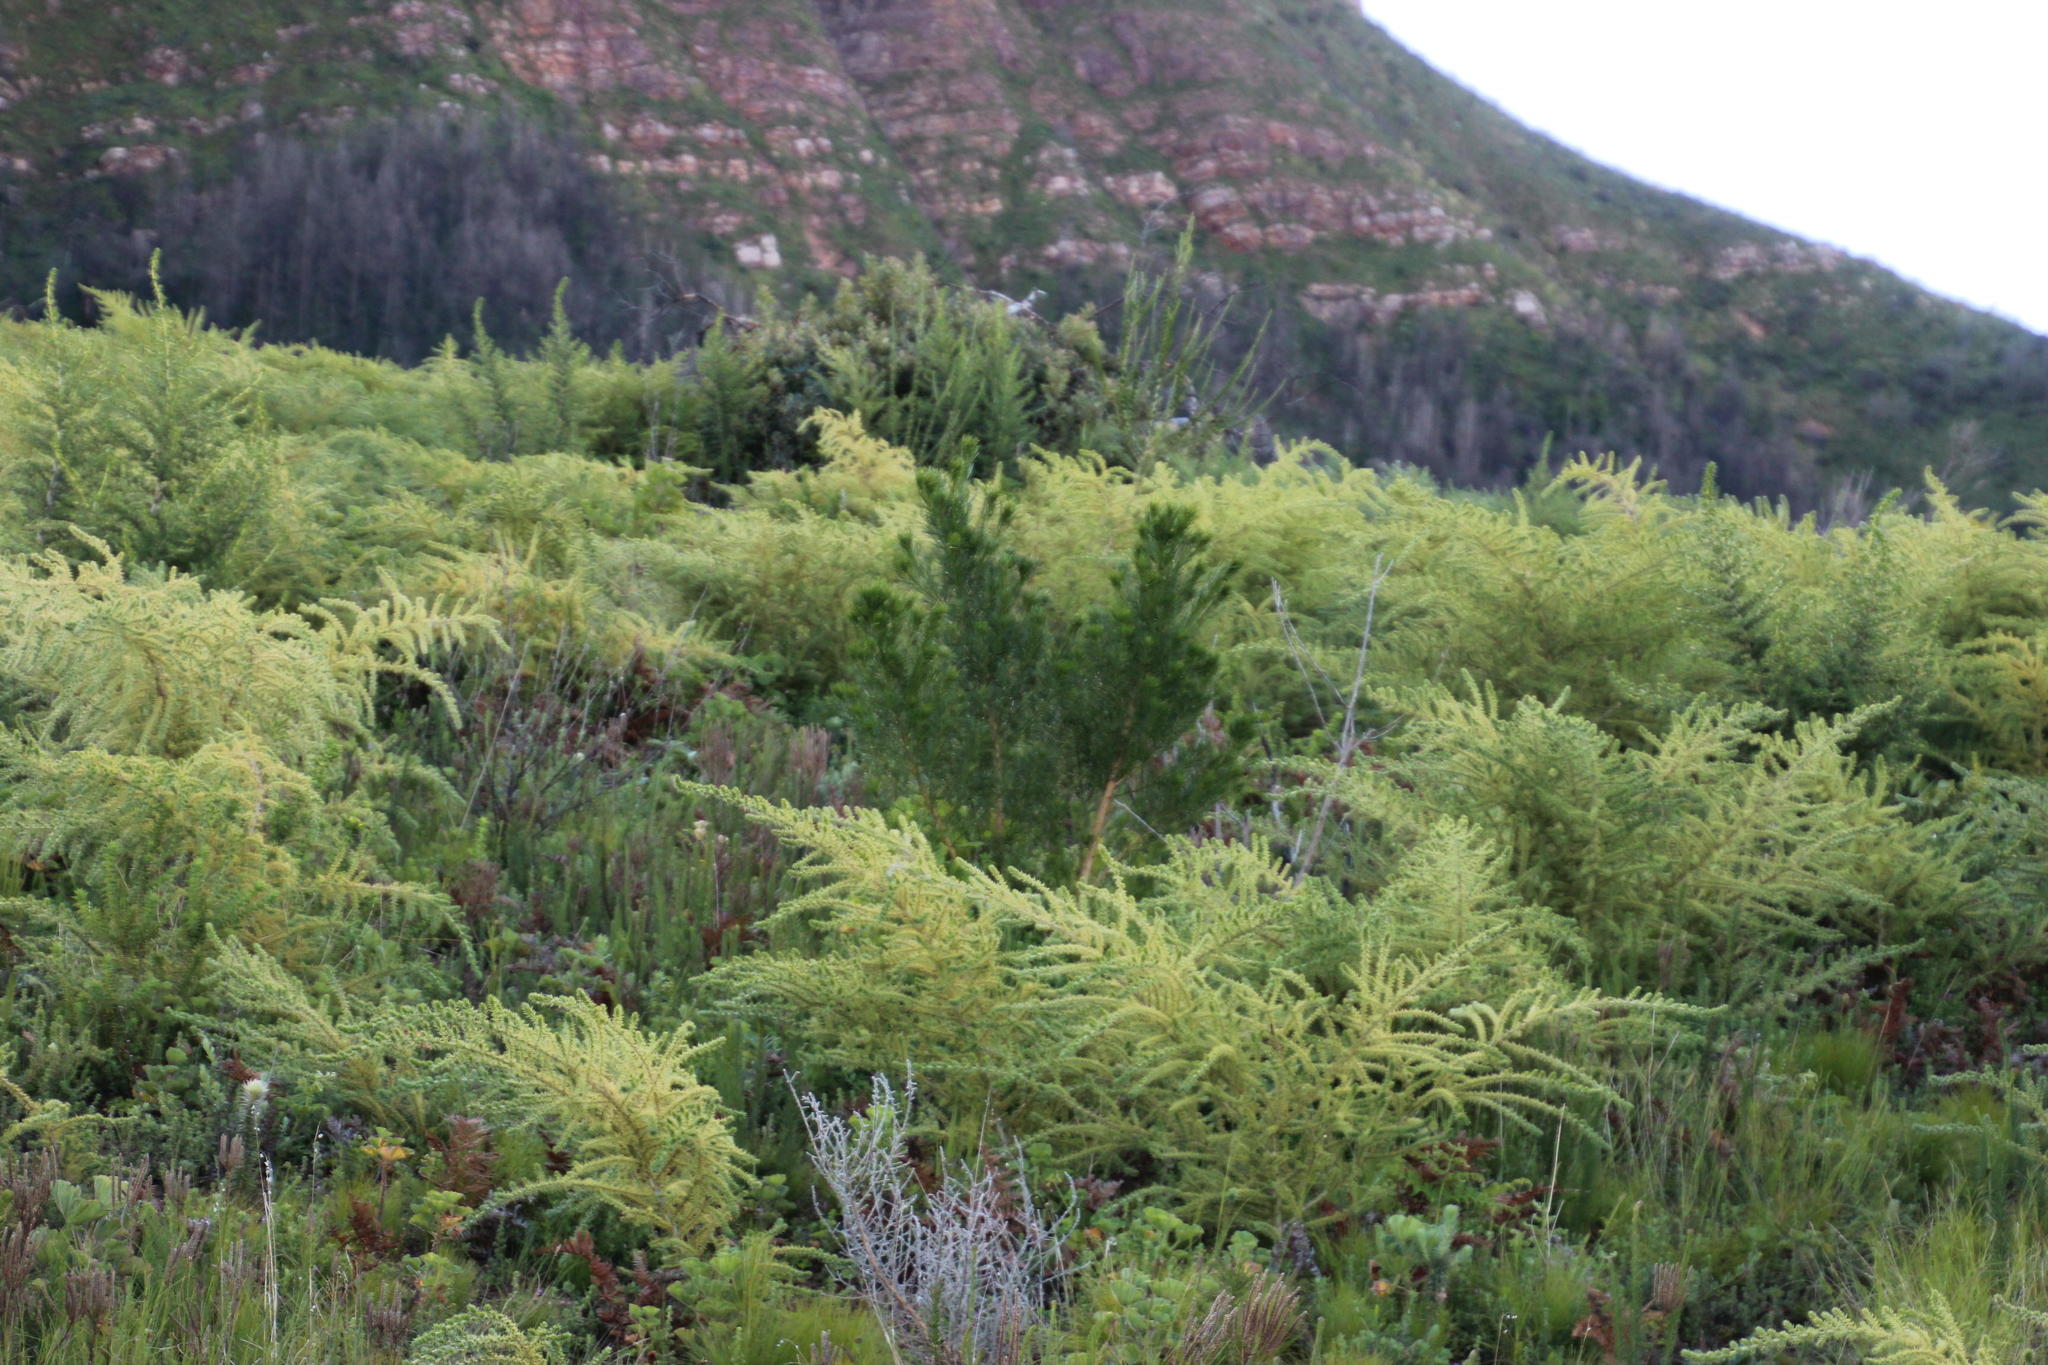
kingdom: Plantae
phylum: Tracheophyta
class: Magnoliopsida
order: Fabales
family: Fabaceae
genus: Psoralea
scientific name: Psoralea pinnata
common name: African scurfpea
